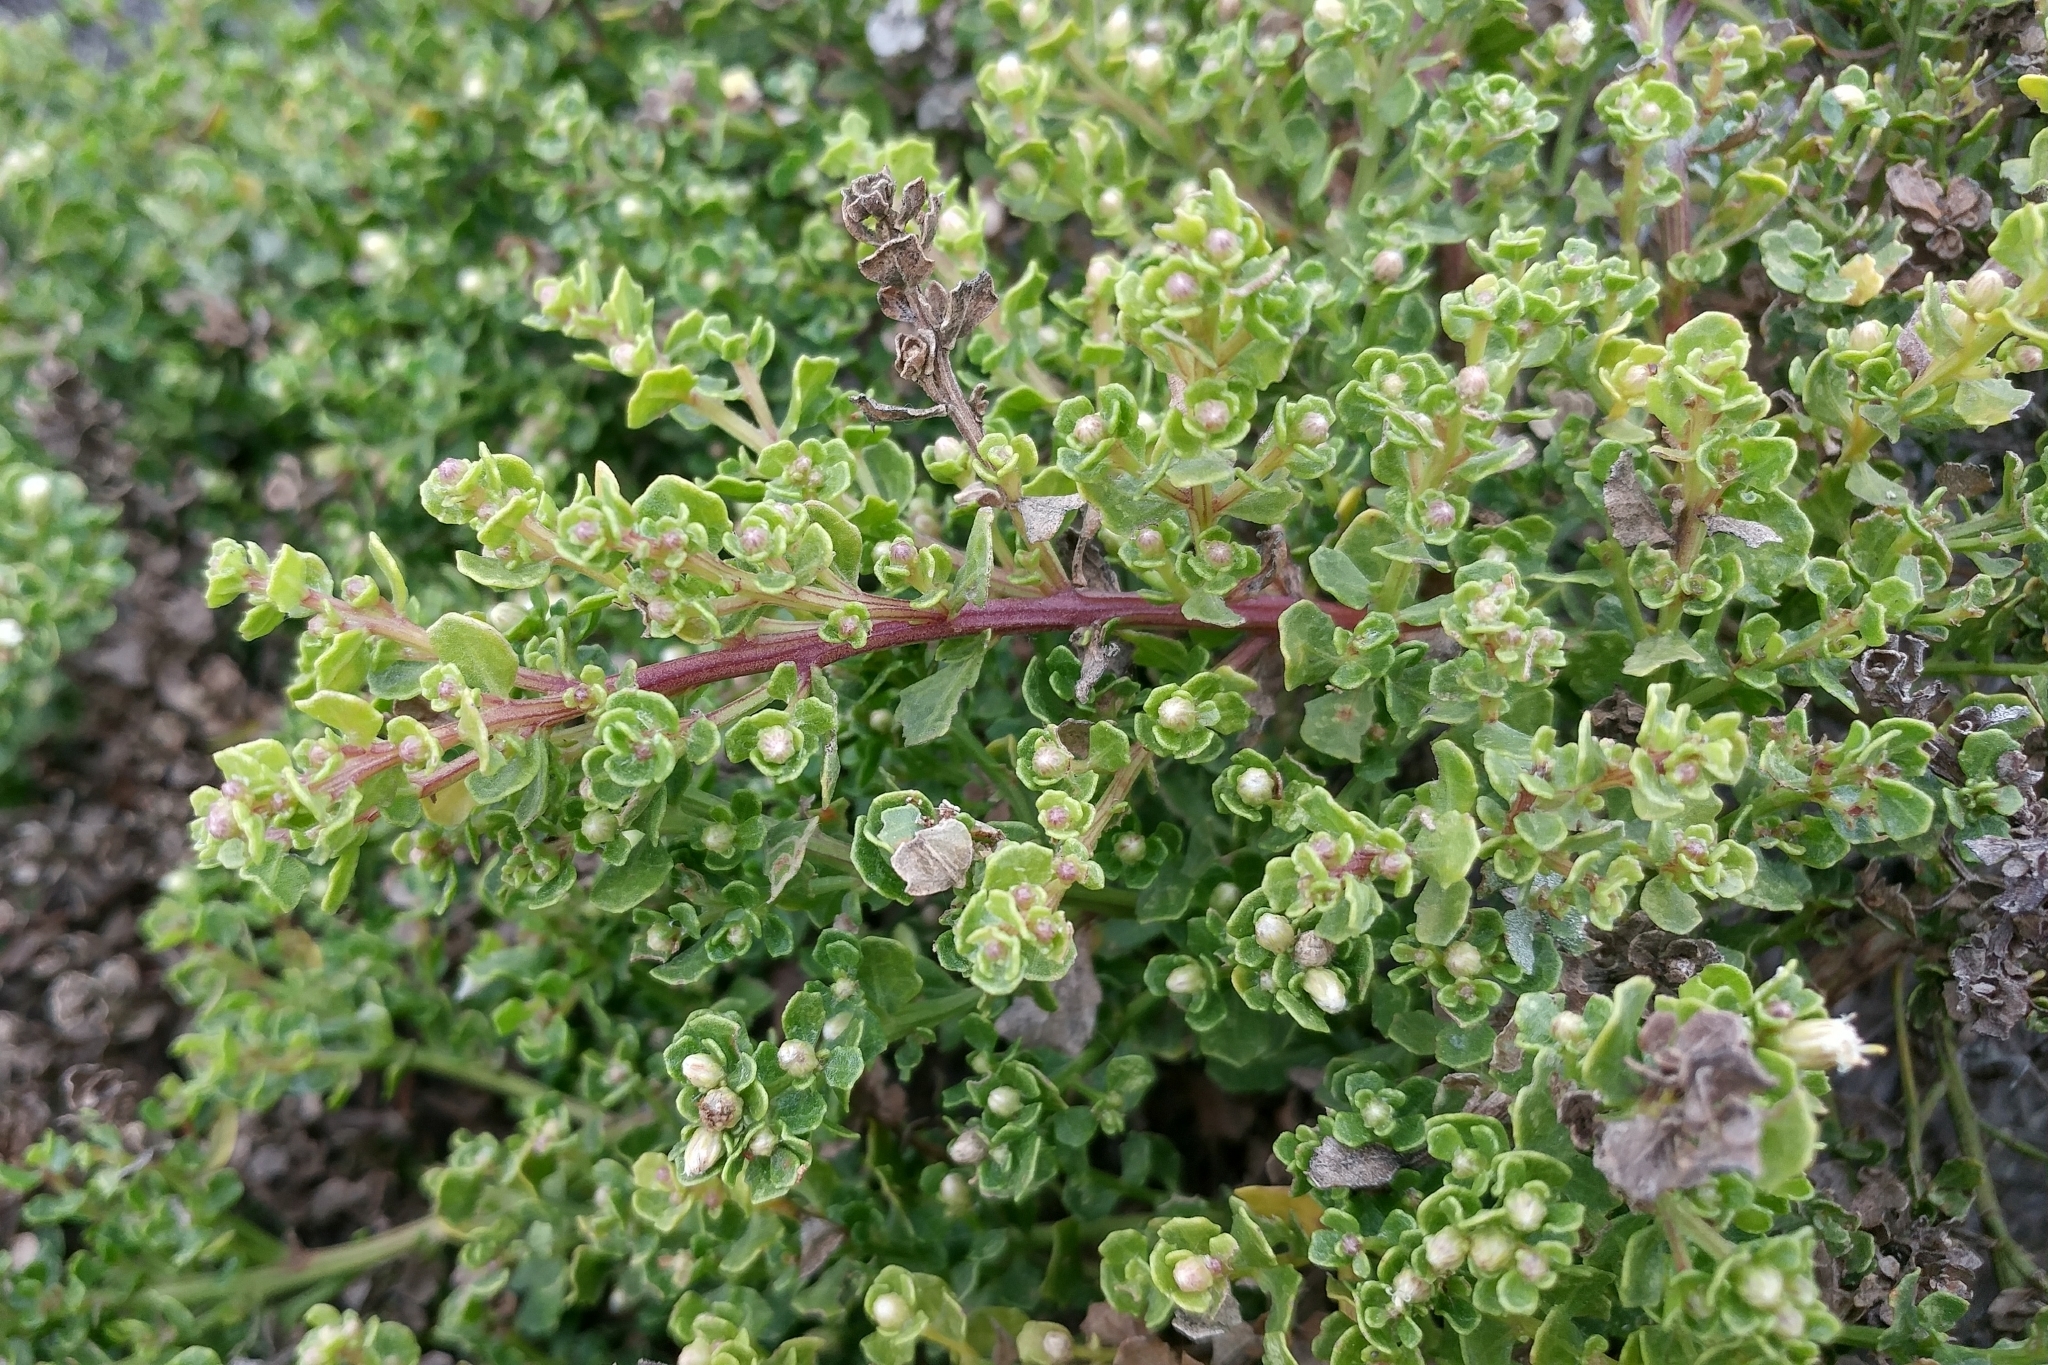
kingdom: Plantae
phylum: Tracheophyta
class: Magnoliopsida
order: Asterales
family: Asteraceae
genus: Baccharis
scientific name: Baccharis pilularis
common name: Coyotebrush
